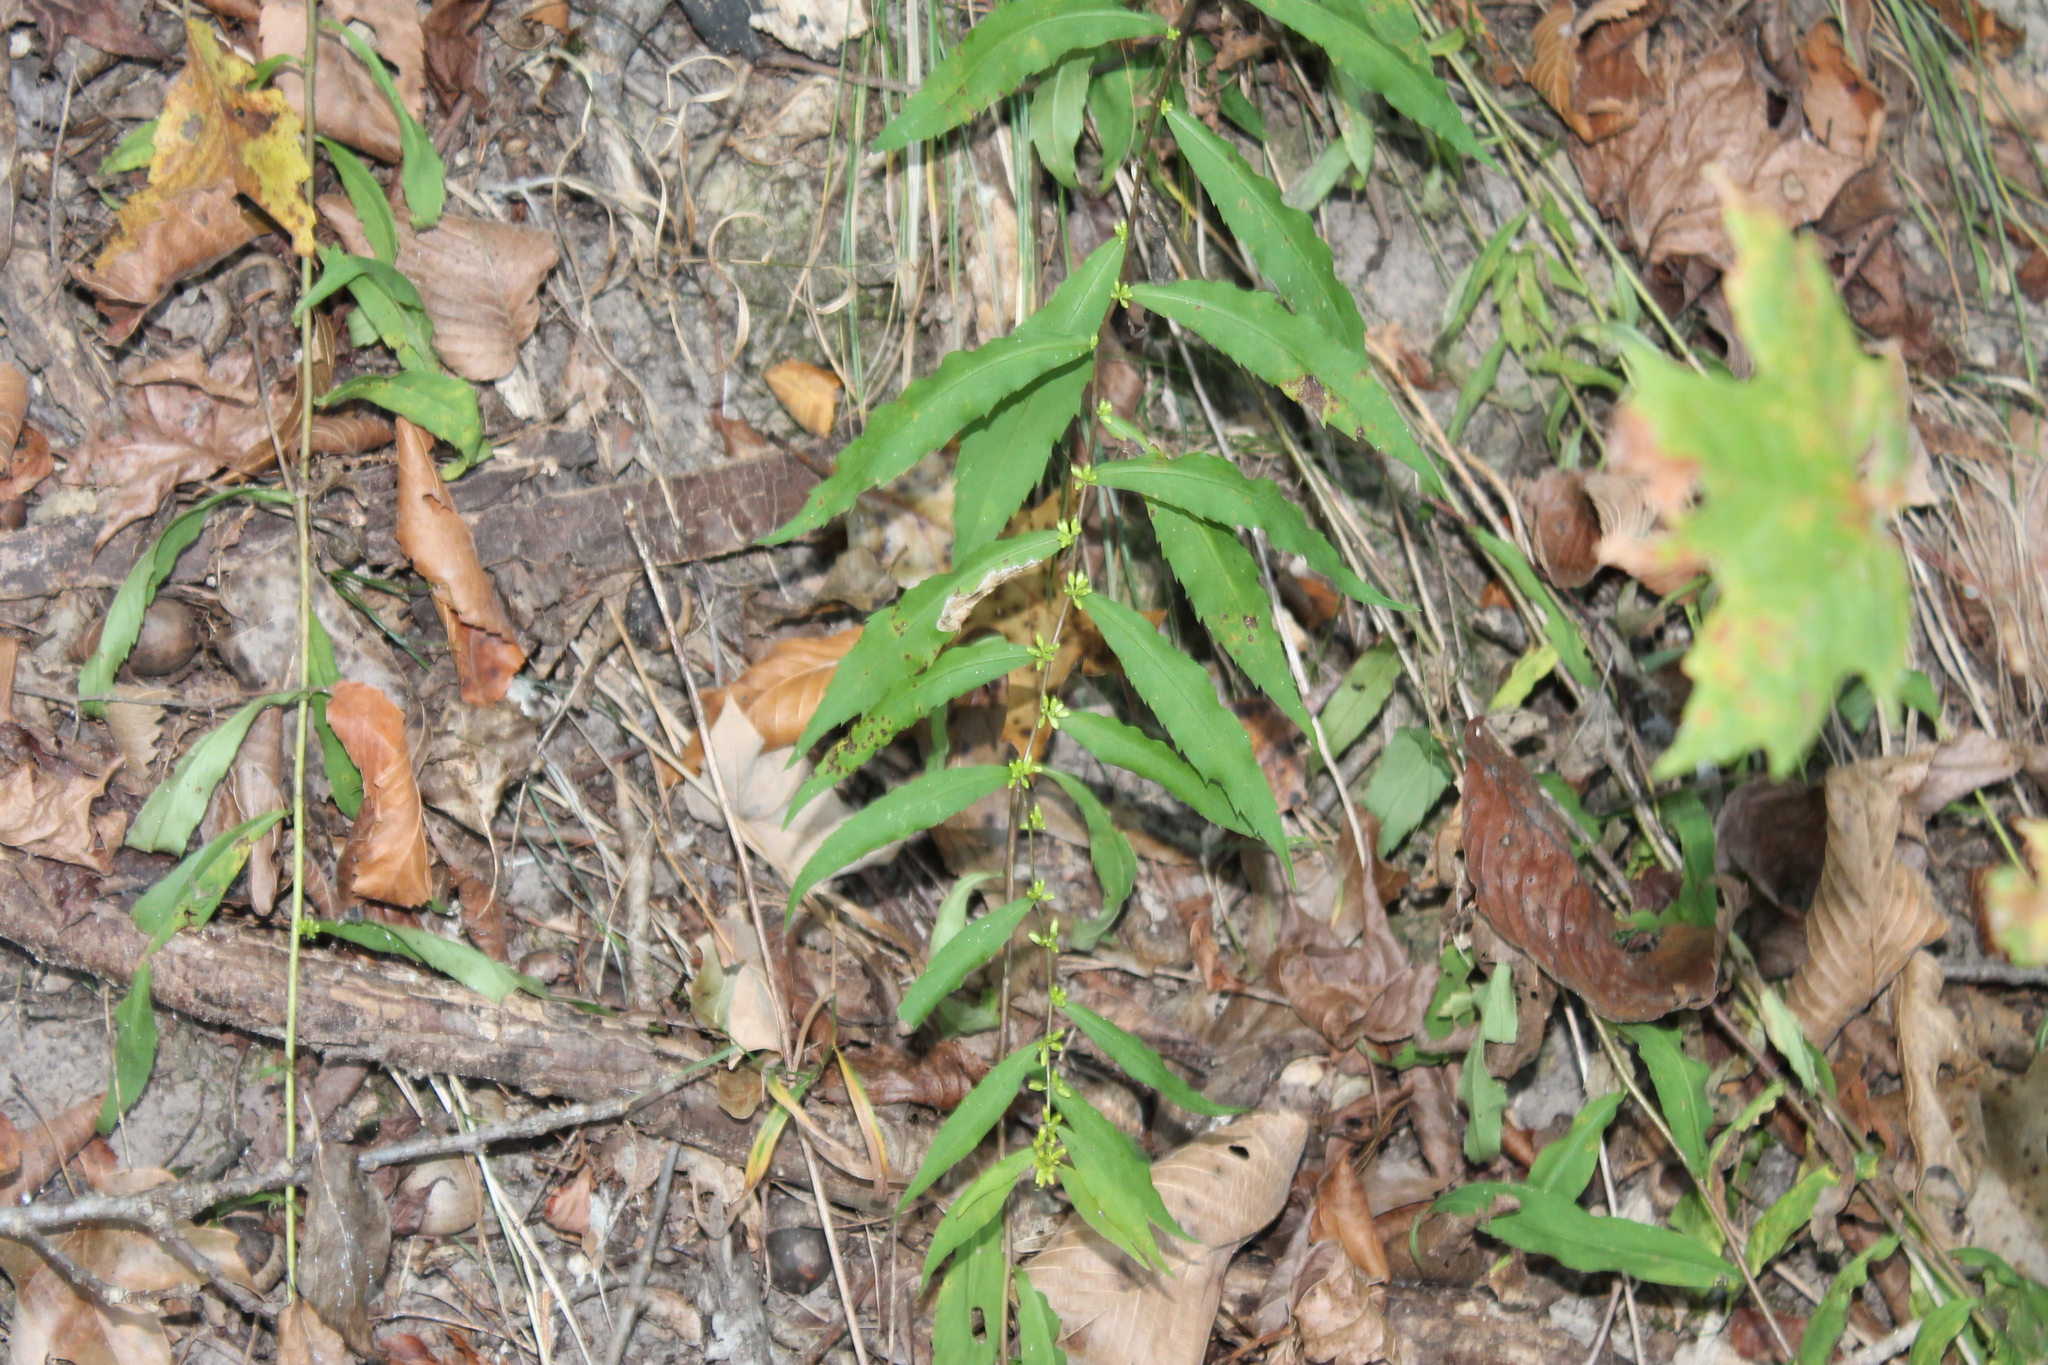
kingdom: Plantae
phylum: Tracheophyta
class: Magnoliopsida
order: Asterales
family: Asteraceae
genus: Solidago
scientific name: Solidago caesia
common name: Woodland goldenrod
